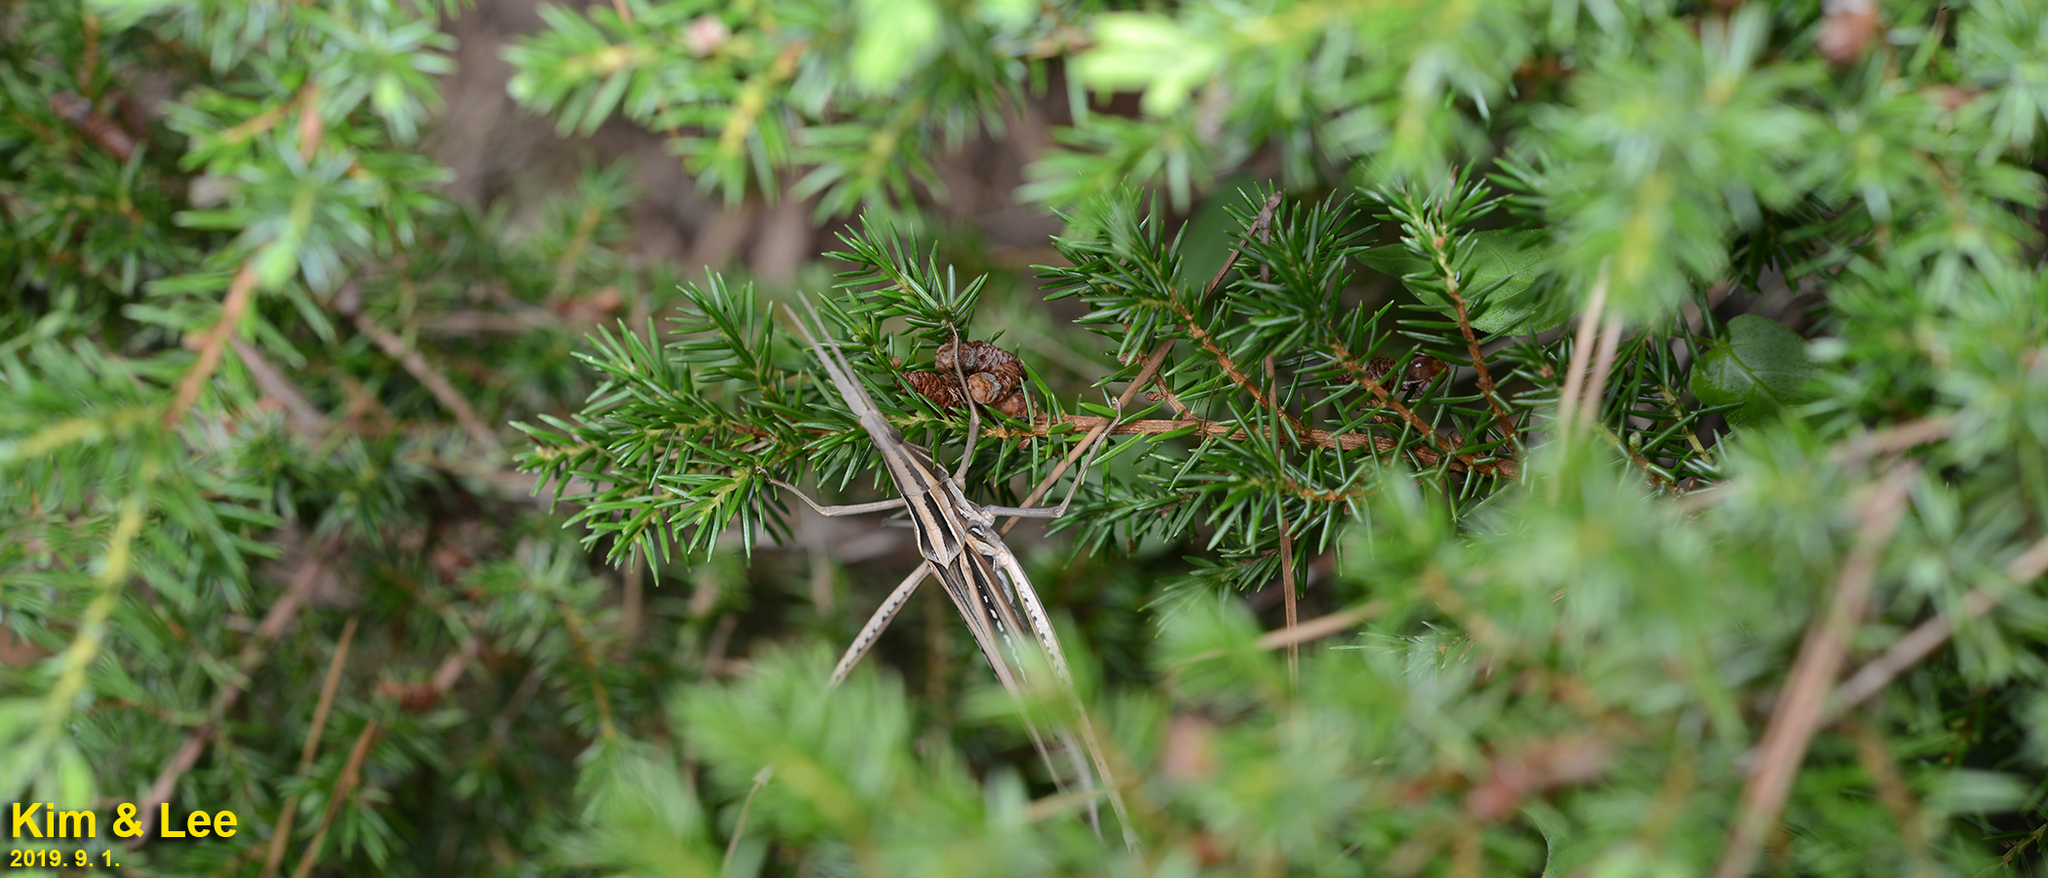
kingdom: Animalia
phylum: Arthropoda
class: Insecta
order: Orthoptera
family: Acrididae
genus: Acrida
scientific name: Acrida cinerea
